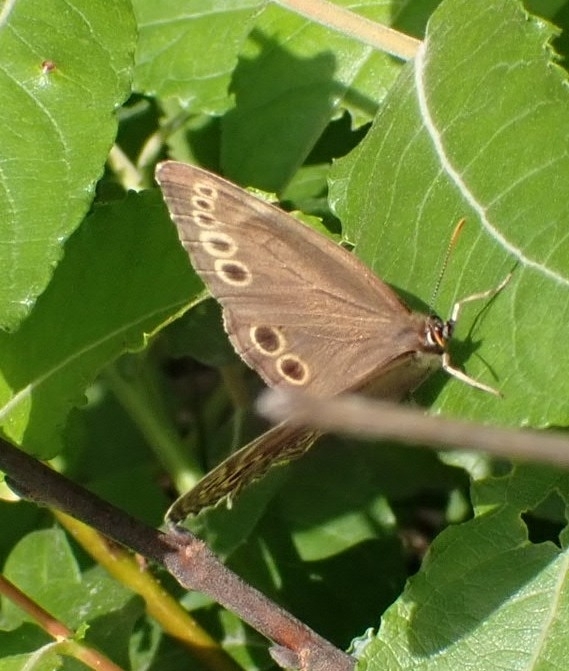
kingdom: Animalia
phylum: Arthropoda
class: Insecta
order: Lepidoptera
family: Nymphalidae
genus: Pararge
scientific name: Pararge Lopinga achine
